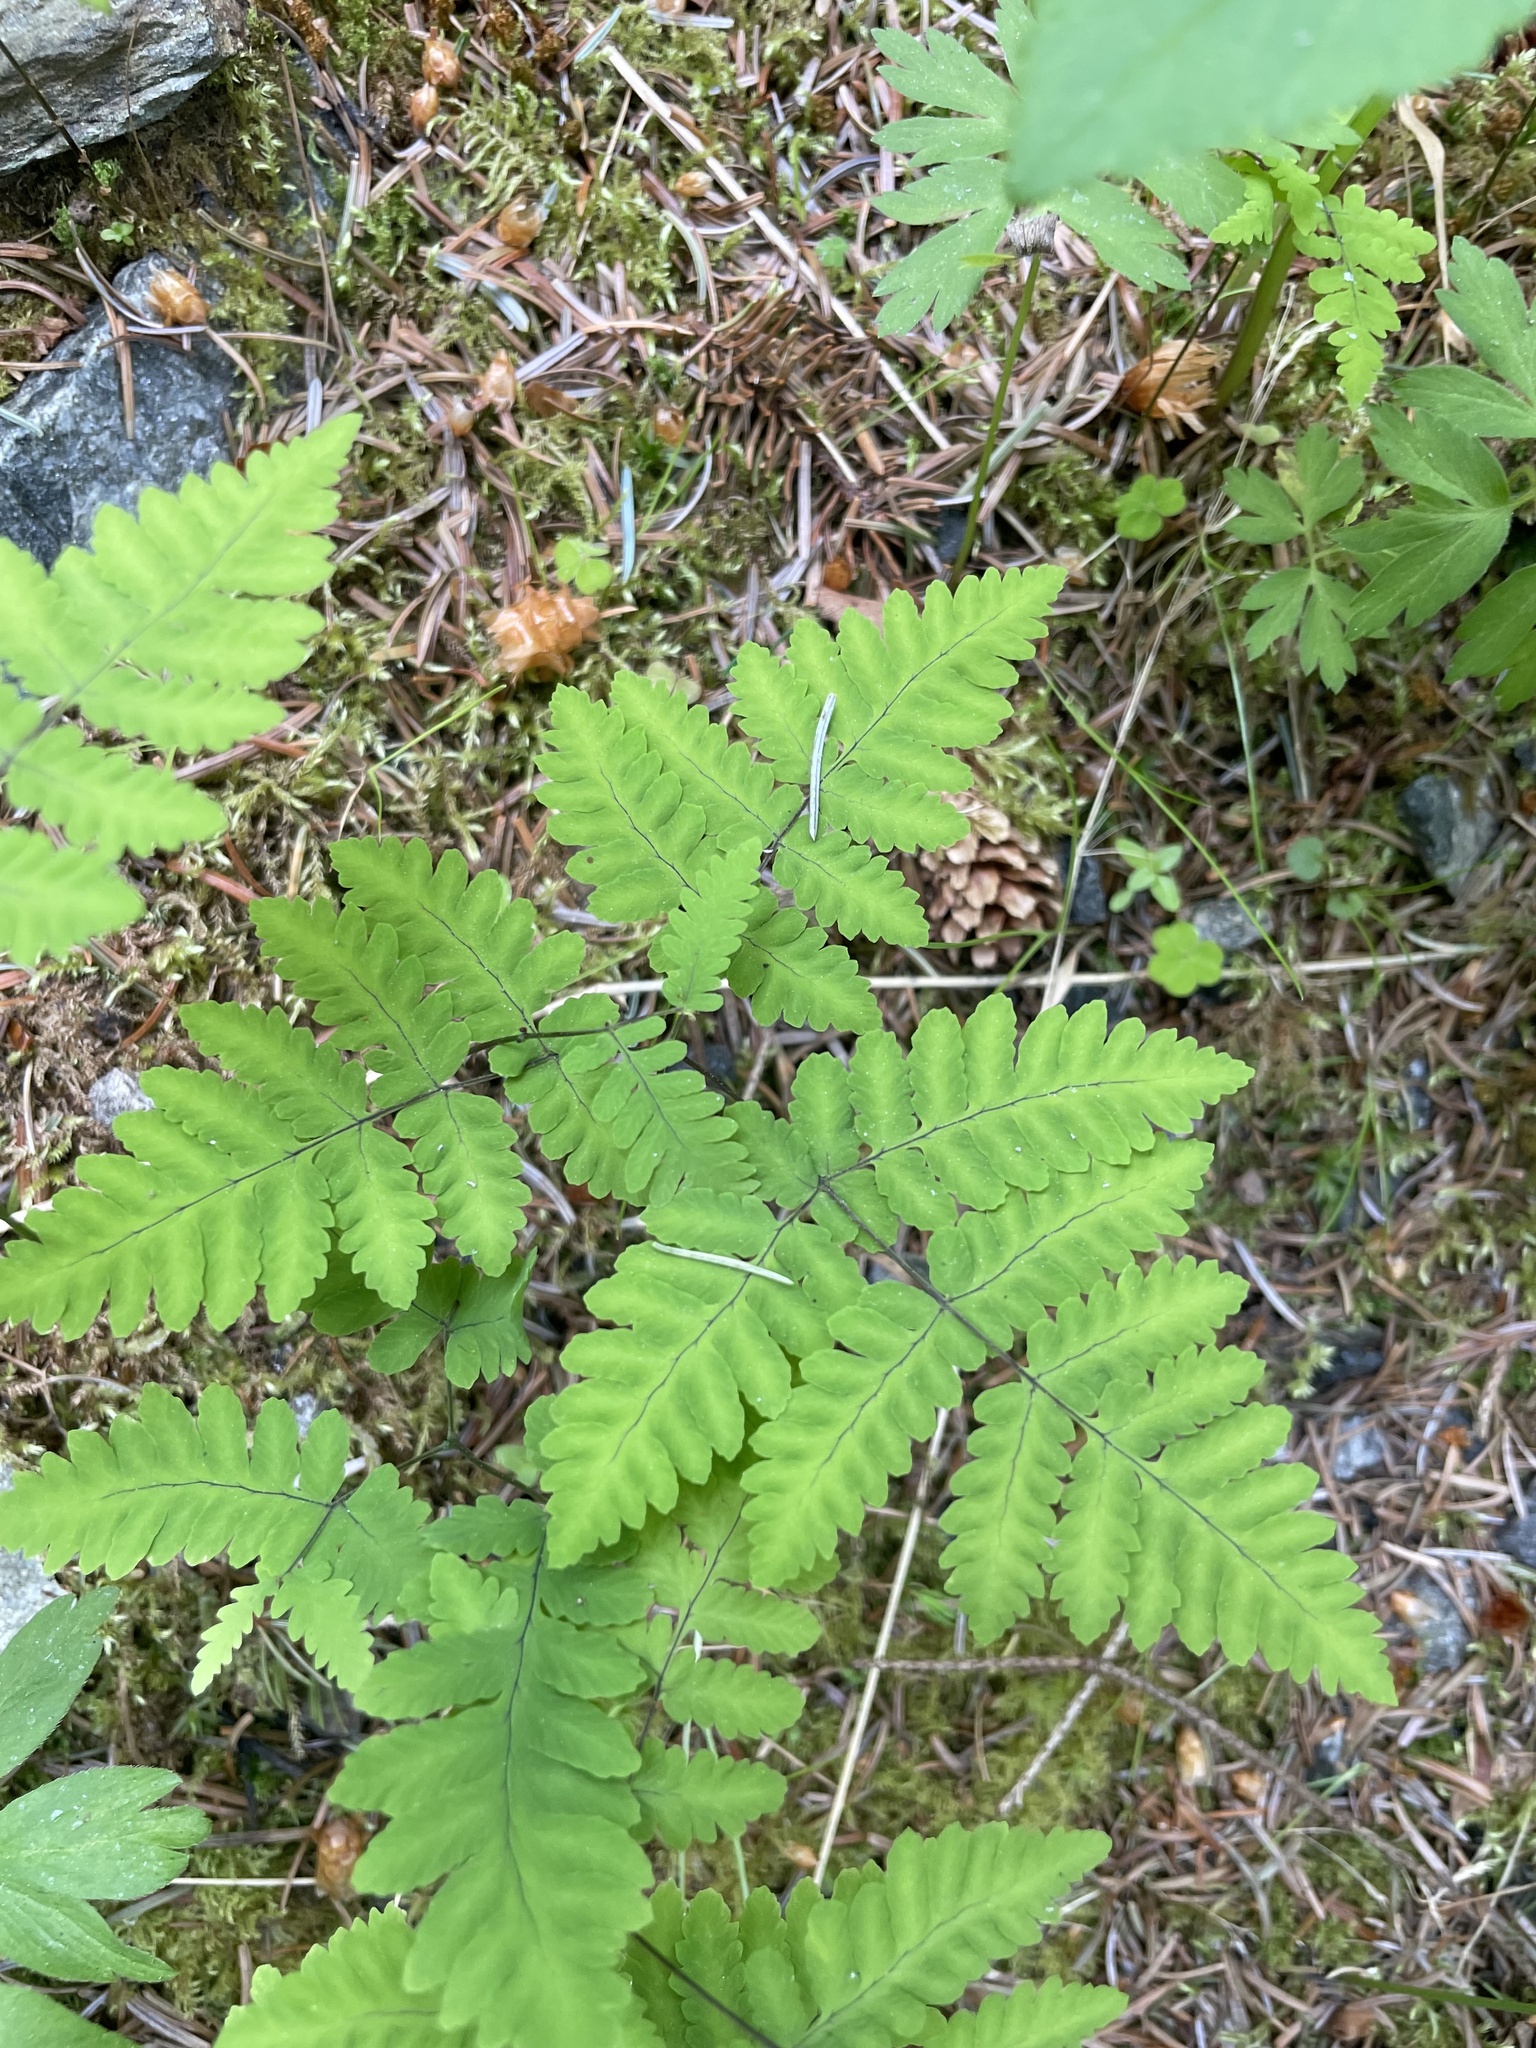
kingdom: Plantae
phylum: Tracheophyta
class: Polypodiopsida
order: Polypodiales
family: Cystopteridaceae
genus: Gymnocarpium
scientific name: Gymnocarpium dryopteris
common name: Oak fern
